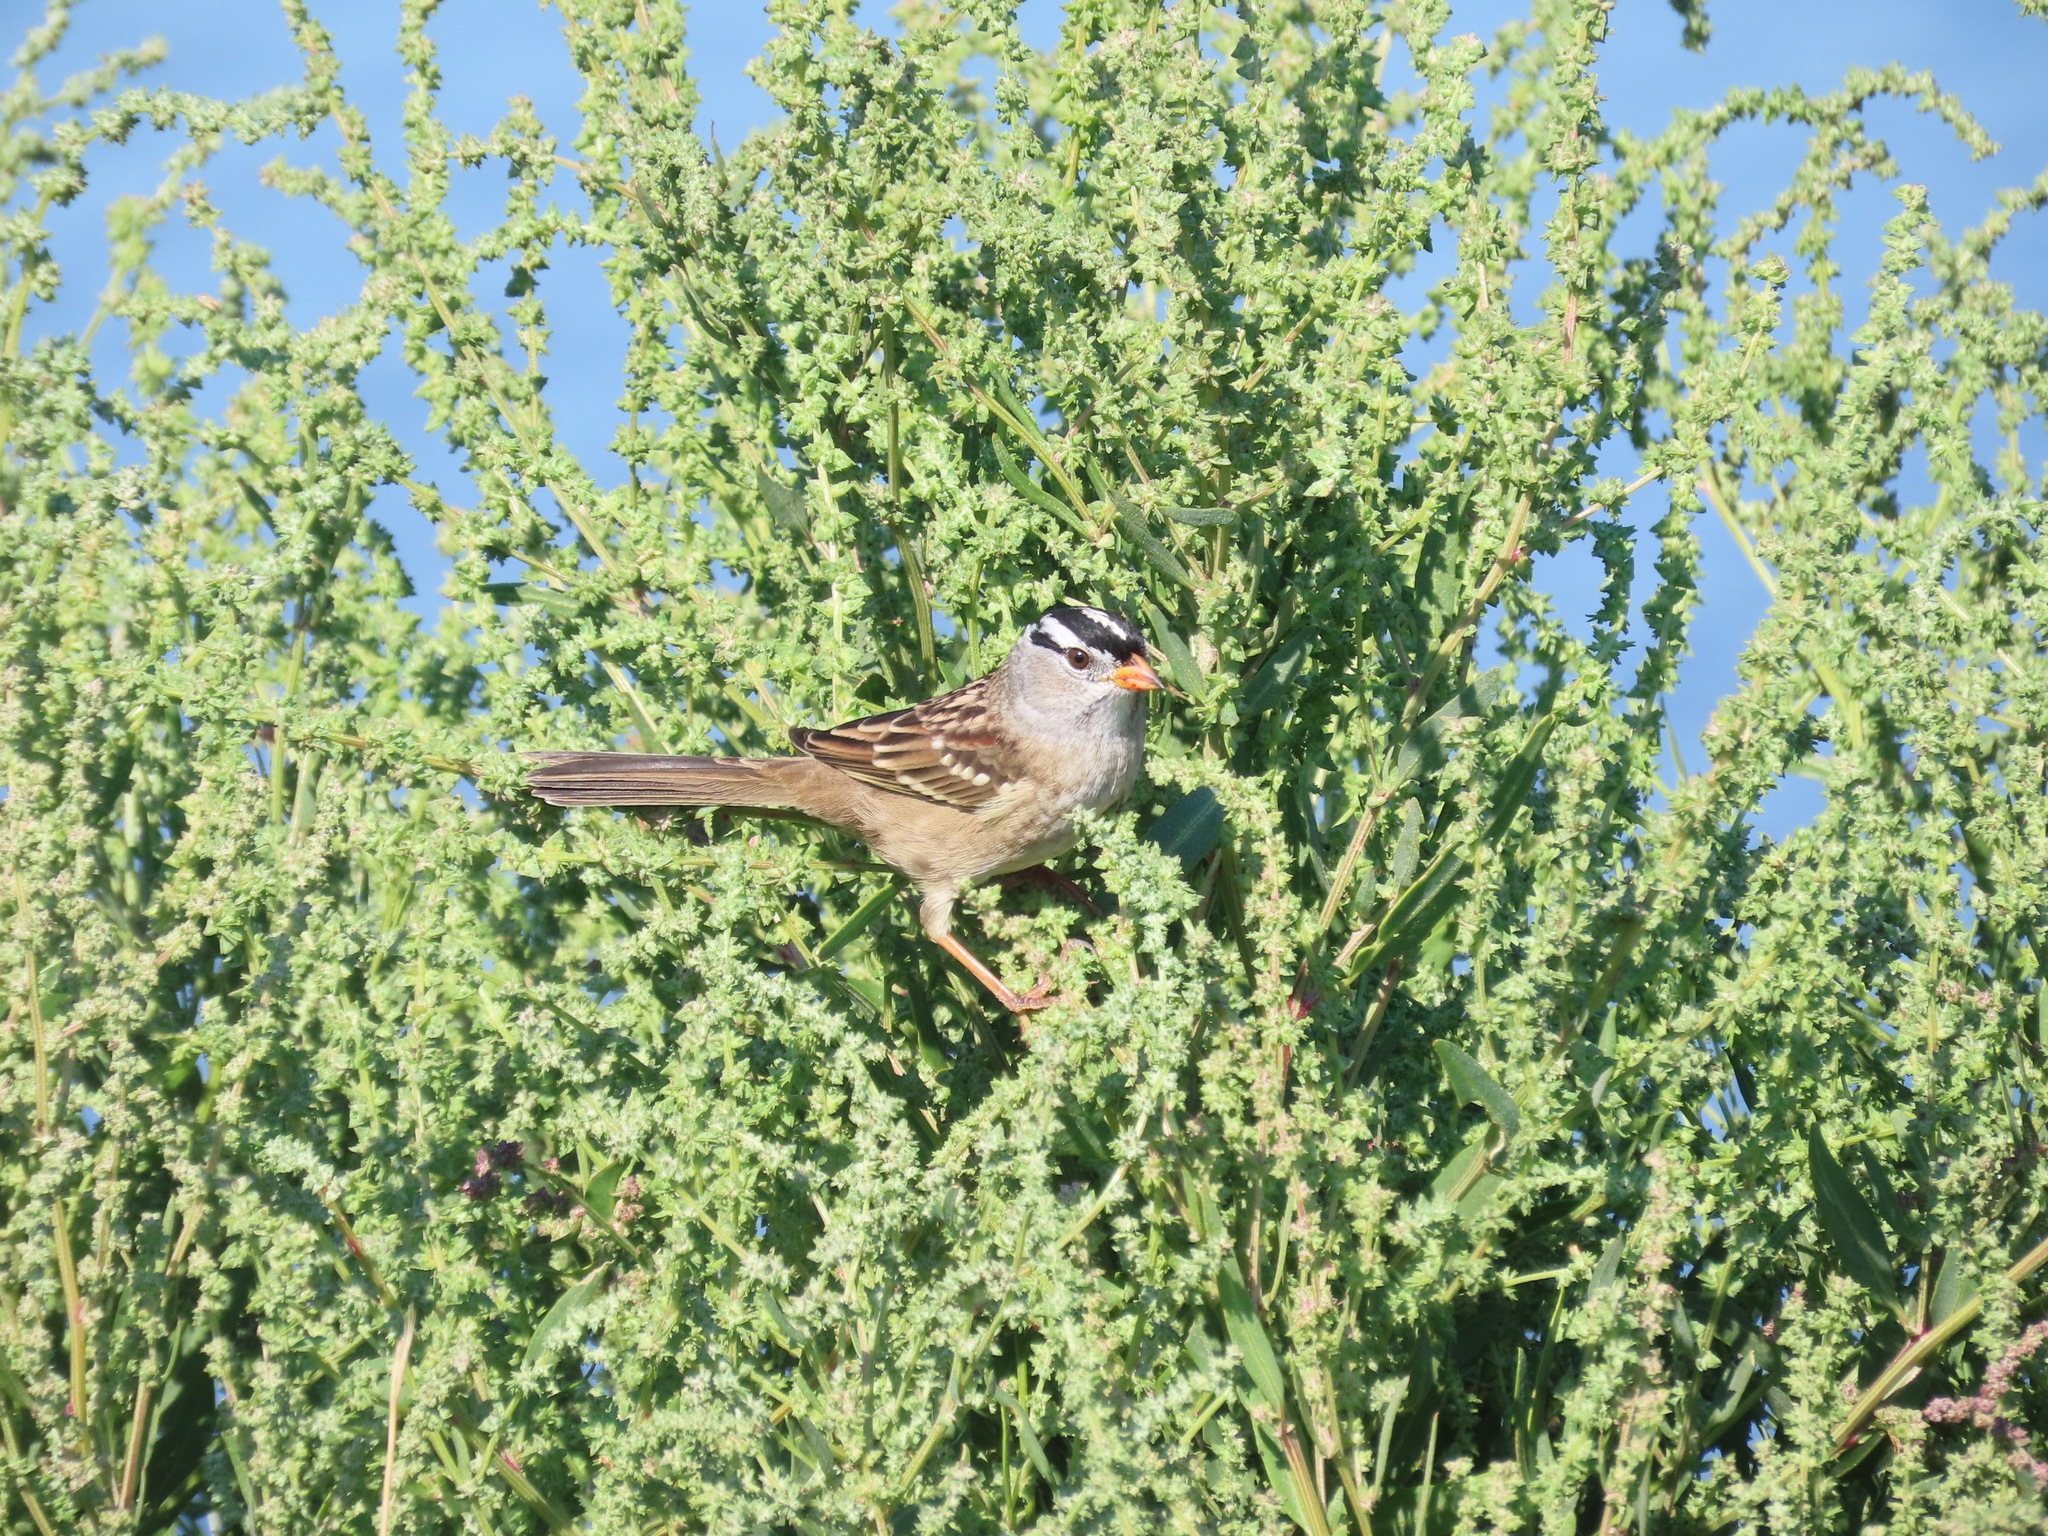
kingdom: Animalia
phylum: Chordata
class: Aves
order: Passeriformes
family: Passerellidae
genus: Zonotrichia
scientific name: Zonotrichia leucophrys
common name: White-crowned sparrow
